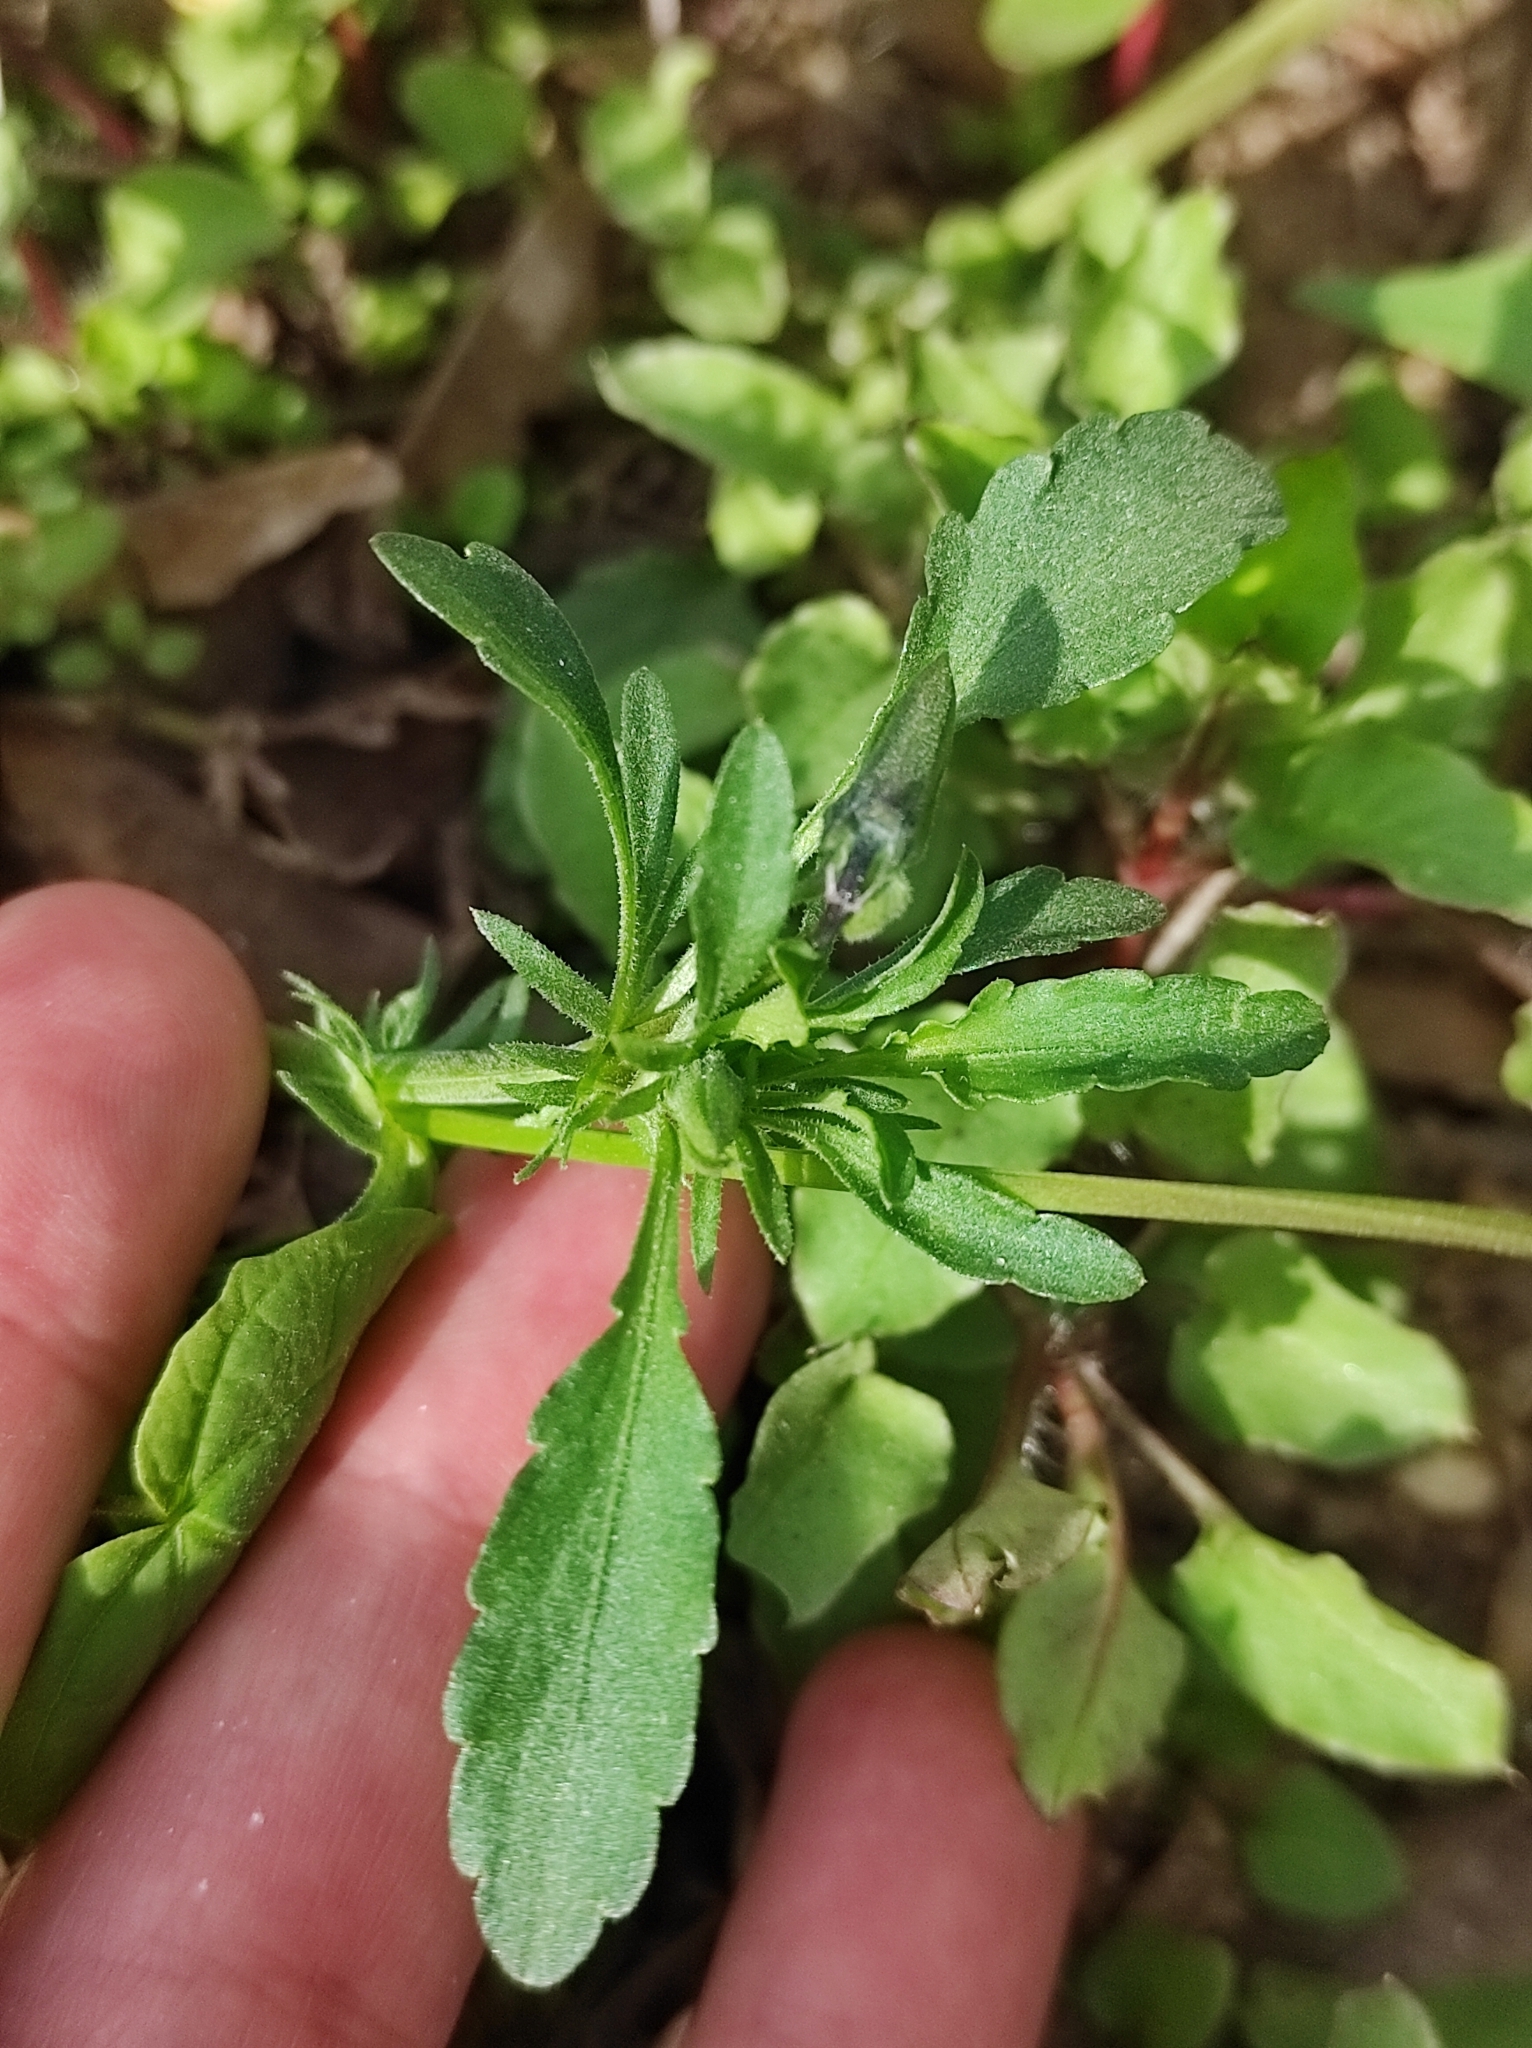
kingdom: Plantae
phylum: Tracheophyta
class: Magnoliopsida
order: Malpighiales
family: Violaceae
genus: Viola
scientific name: Viola arvensis
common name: Field pansy
